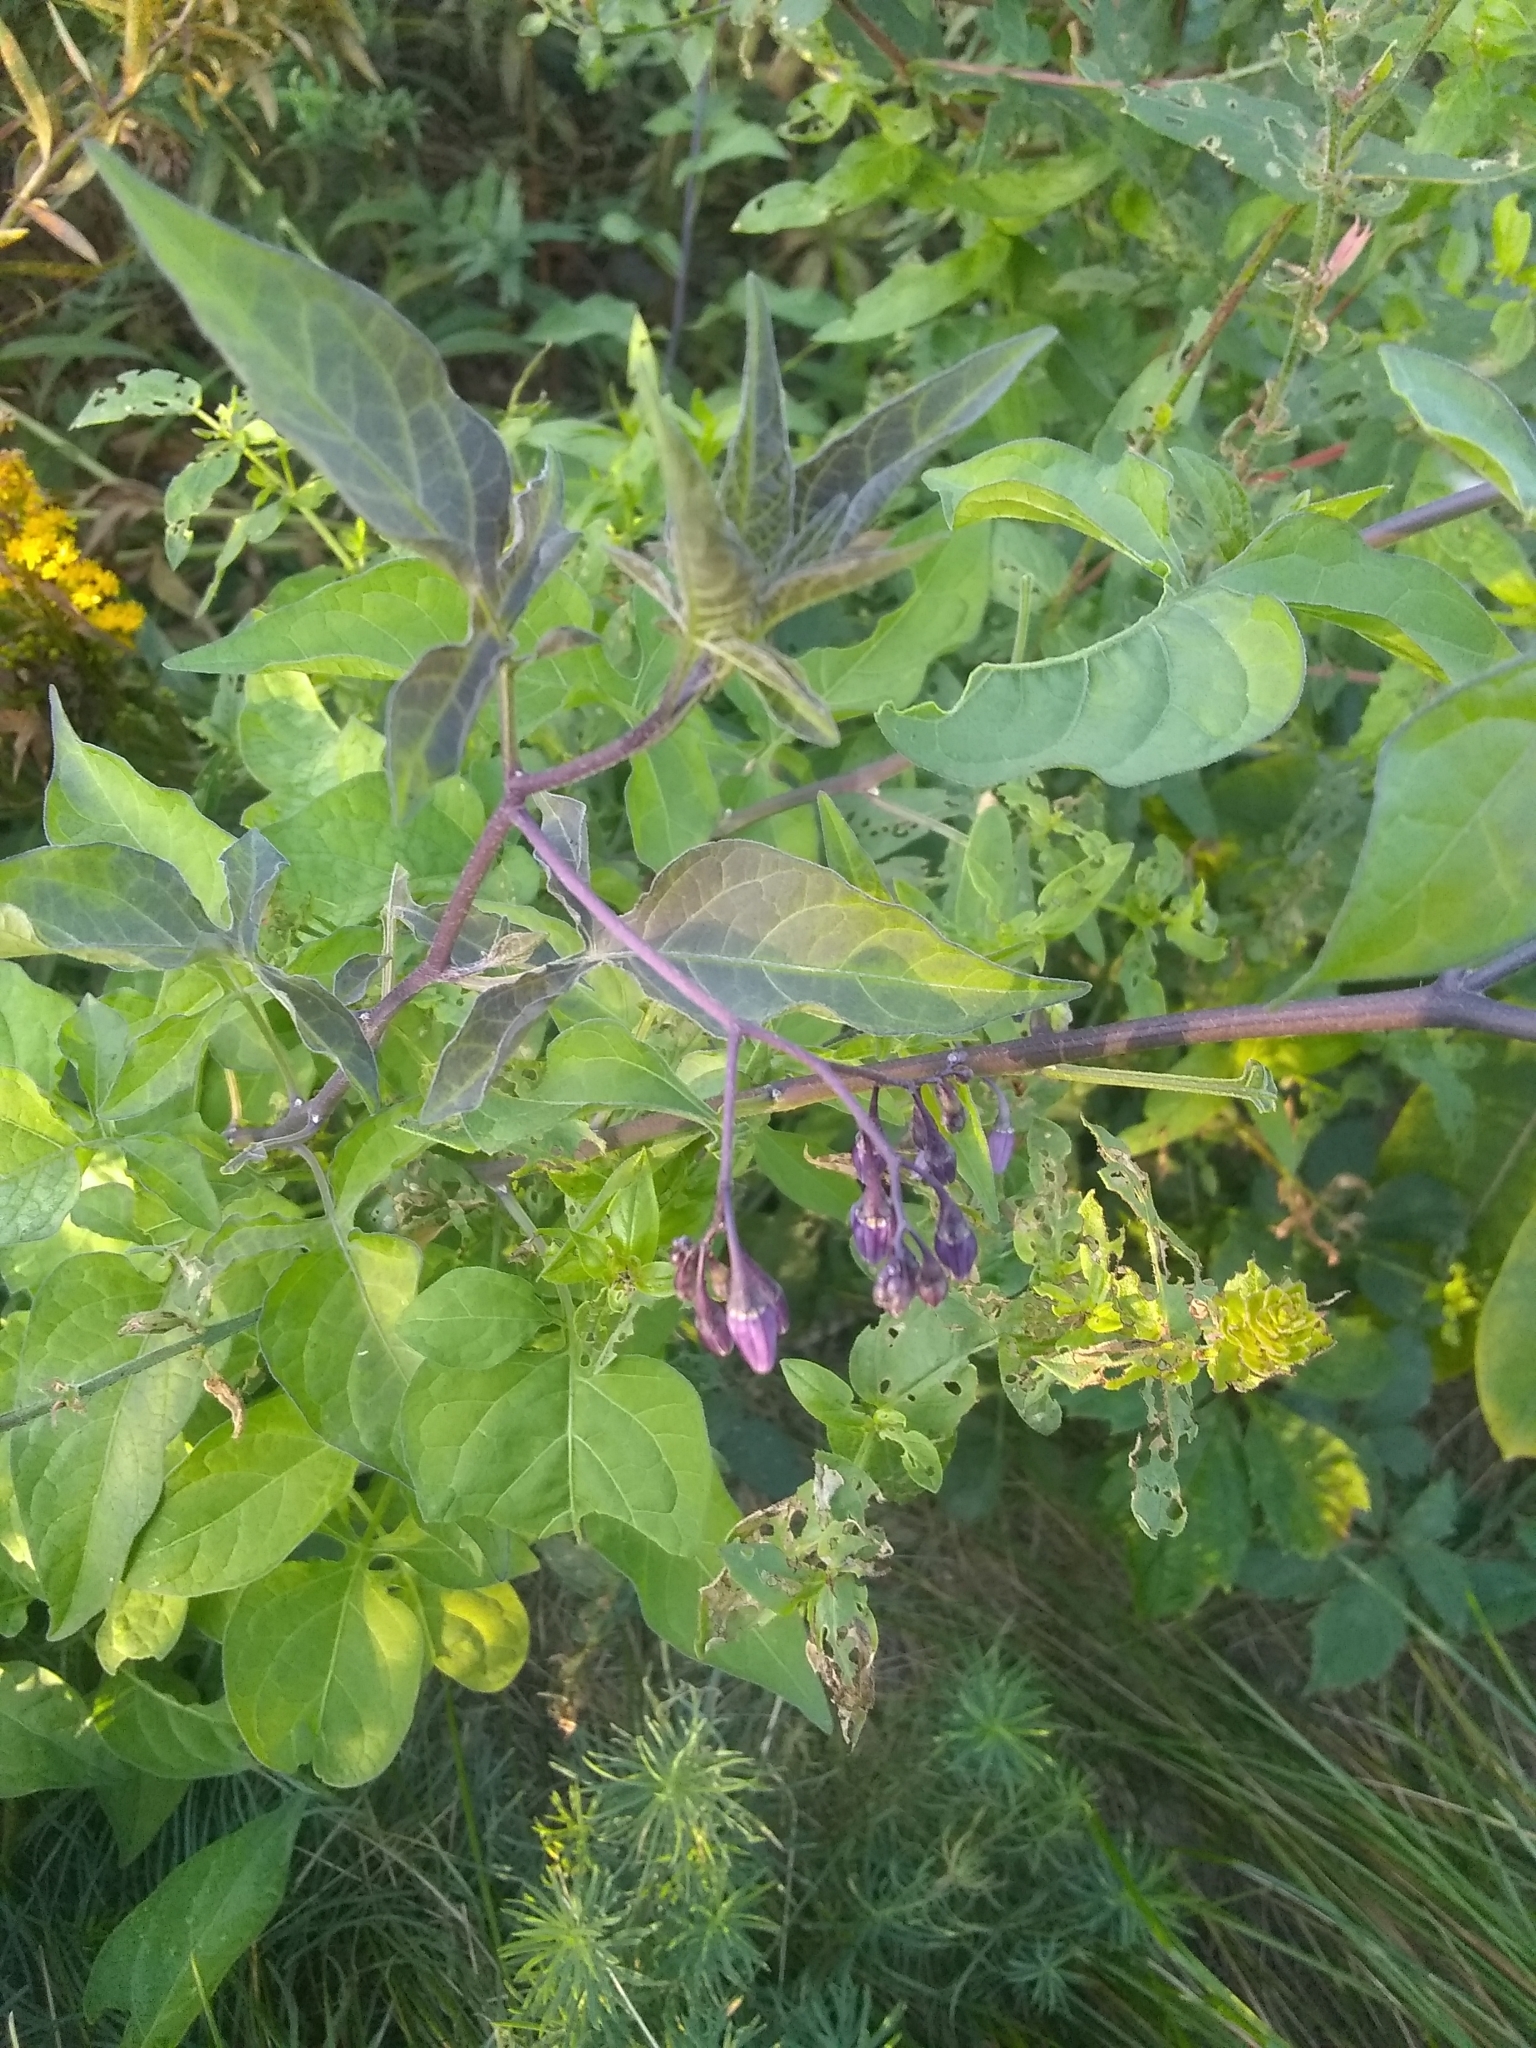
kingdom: Plantae
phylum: Tracheophyta
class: Magnoliopsida
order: Solanales
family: Solanaceae
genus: Solanum
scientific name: Solanum dulcamara
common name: Climbing nightshade
